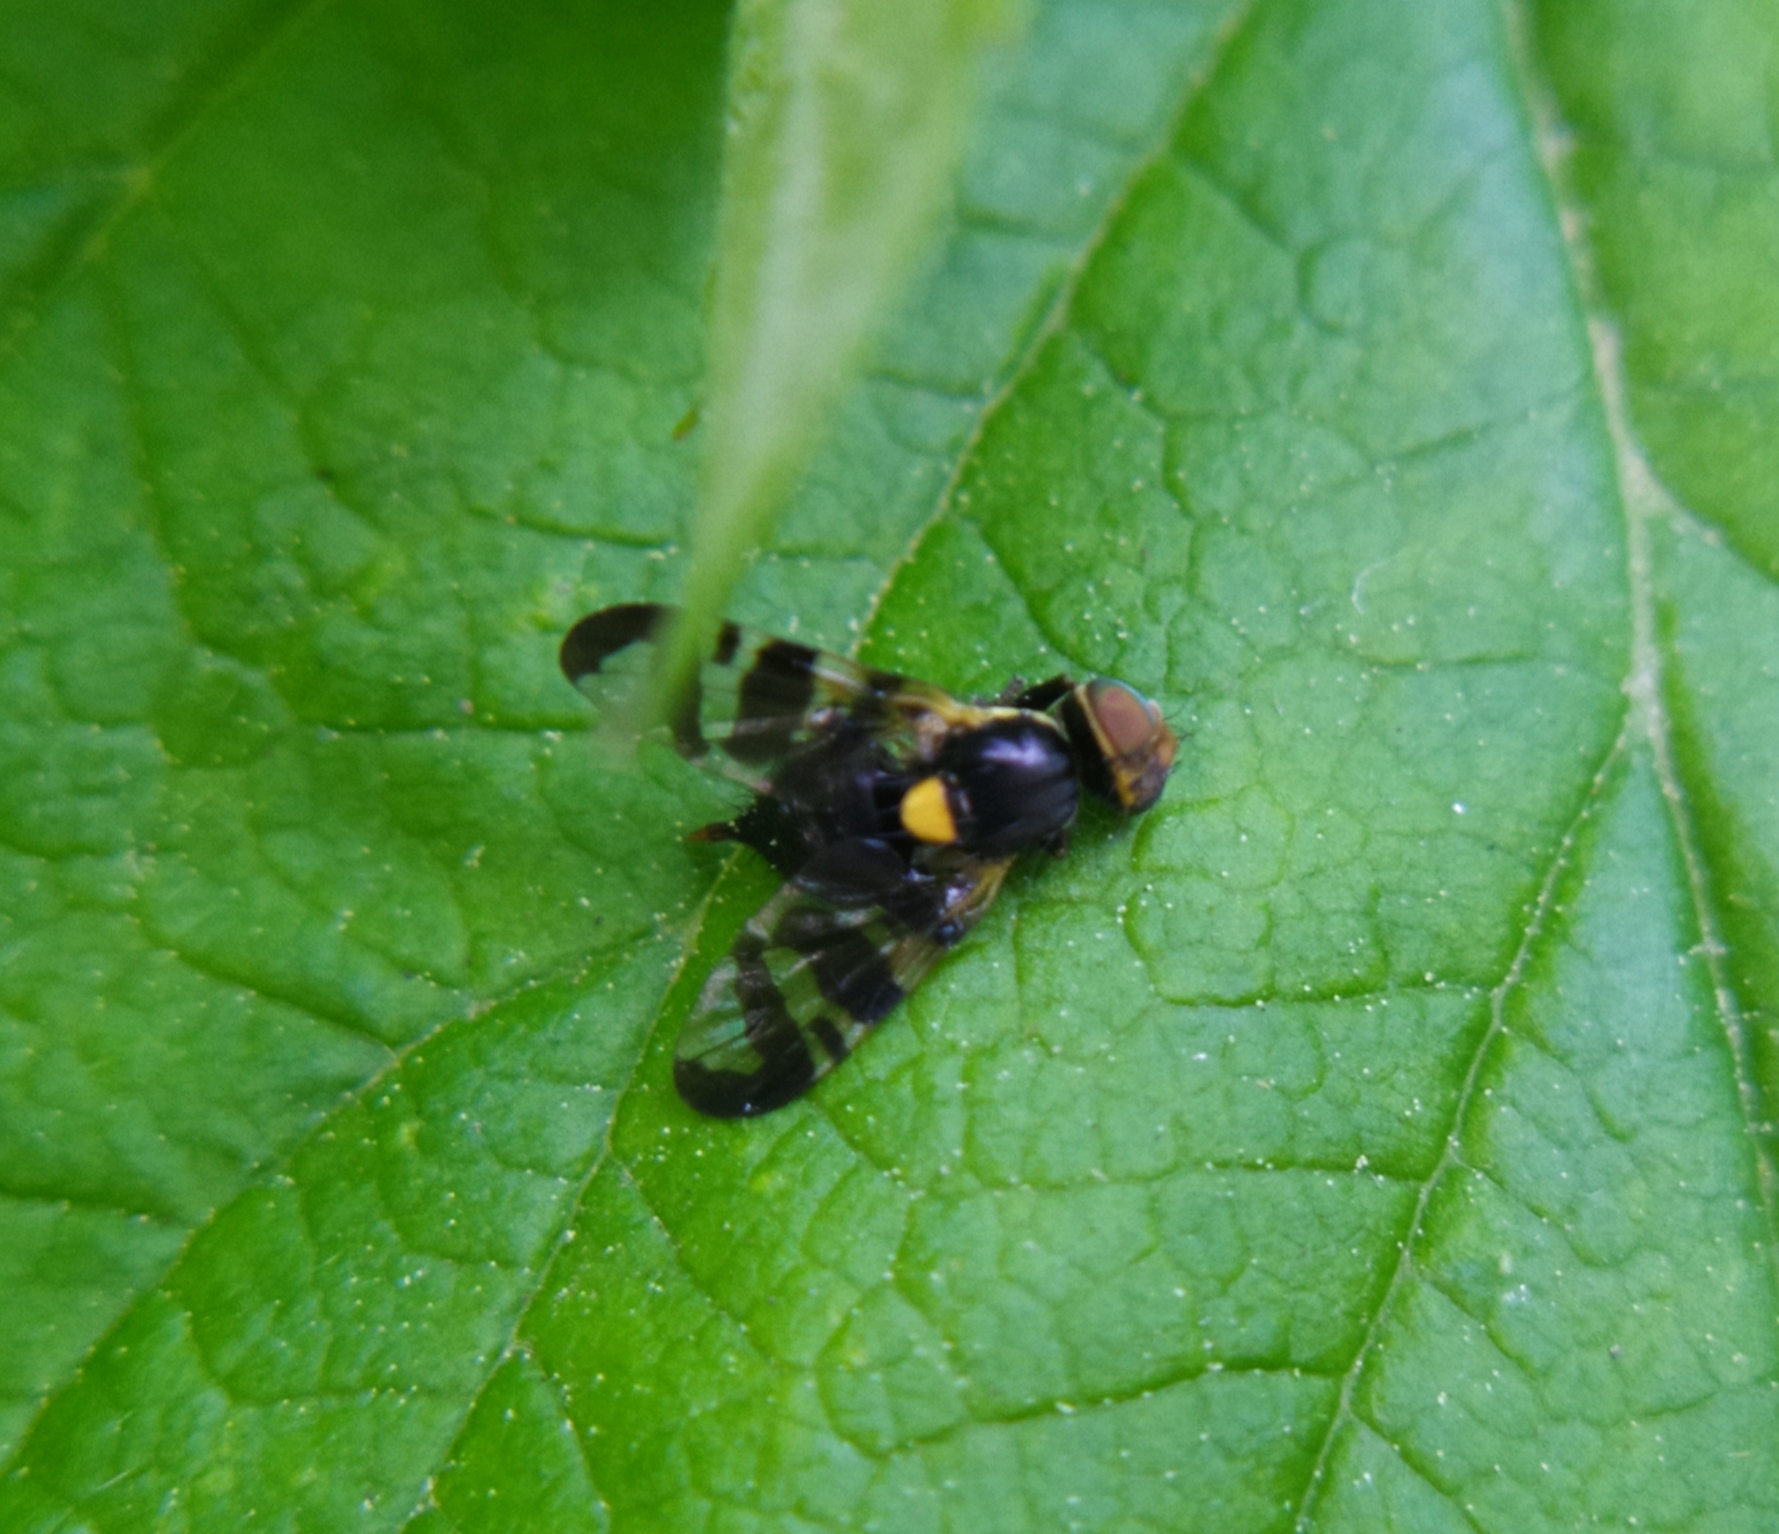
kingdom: Animalia
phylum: Arthropoda
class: Insecta
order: Diptera
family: Tephritidae
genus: Rhagoletis
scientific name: Rhagoletis cerasi
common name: European cherry fruit fly
